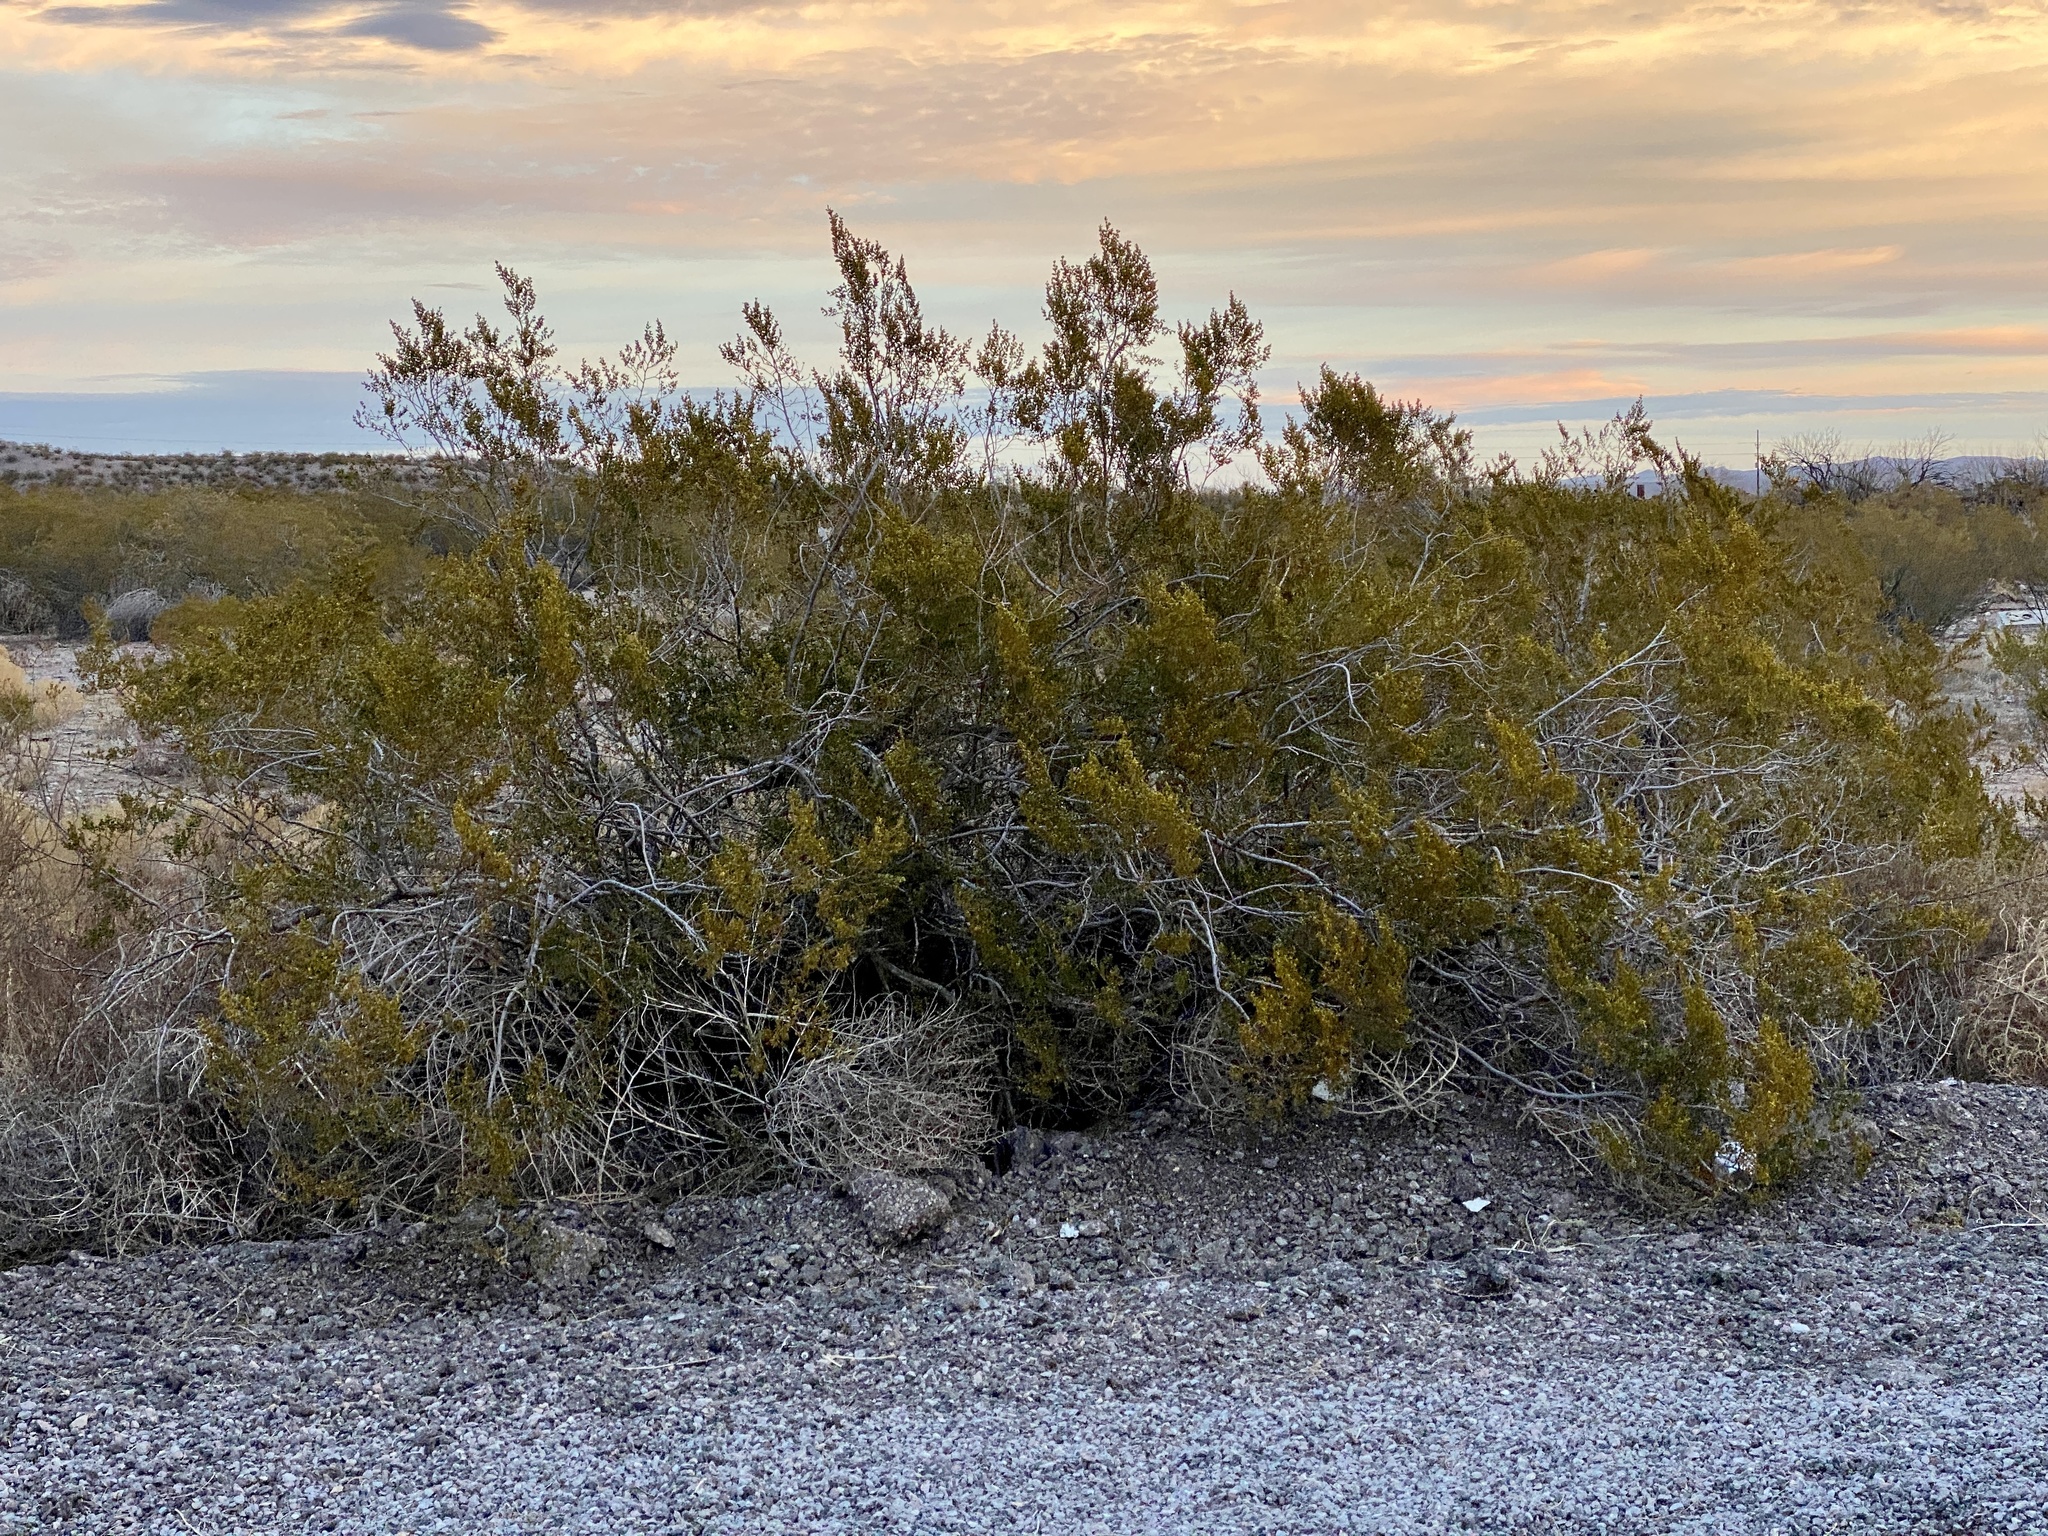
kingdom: Plantae
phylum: Tracheophyta
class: Magnoliopsida
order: Zygophyllales
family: Zygophyllaceae
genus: Larrea
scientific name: Larrea tridentata
